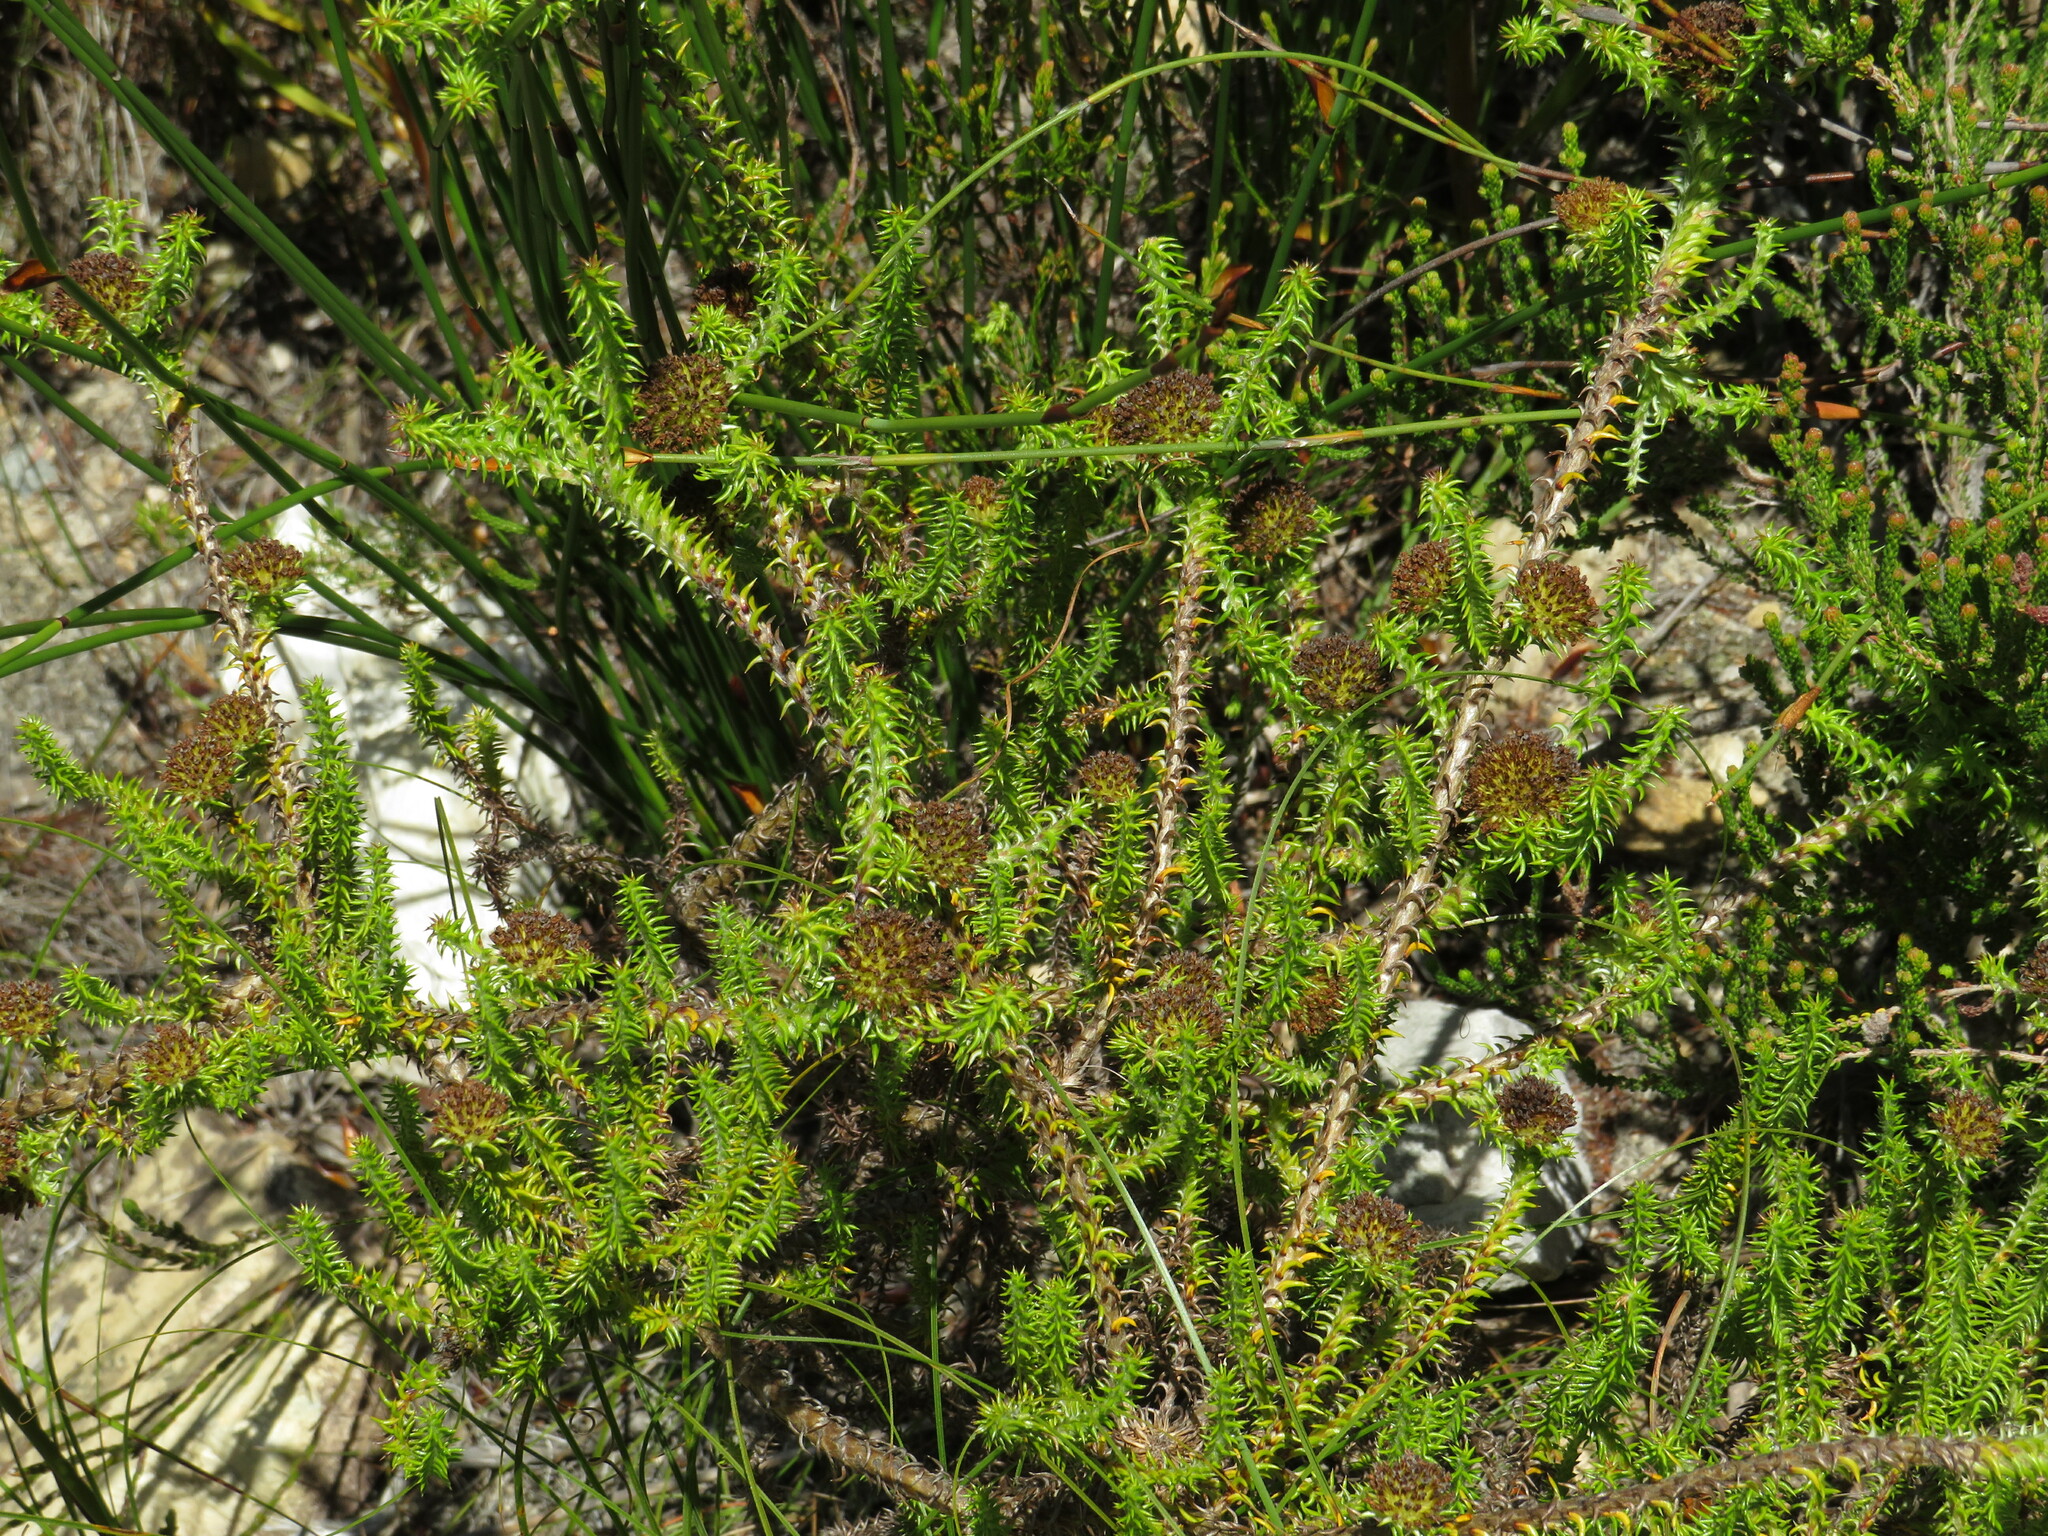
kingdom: Plantae
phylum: Tracheophyta
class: Magnoliopsida
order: Asterales
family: Asteraceae
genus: Stoebe
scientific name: Stoebe aethiopica
